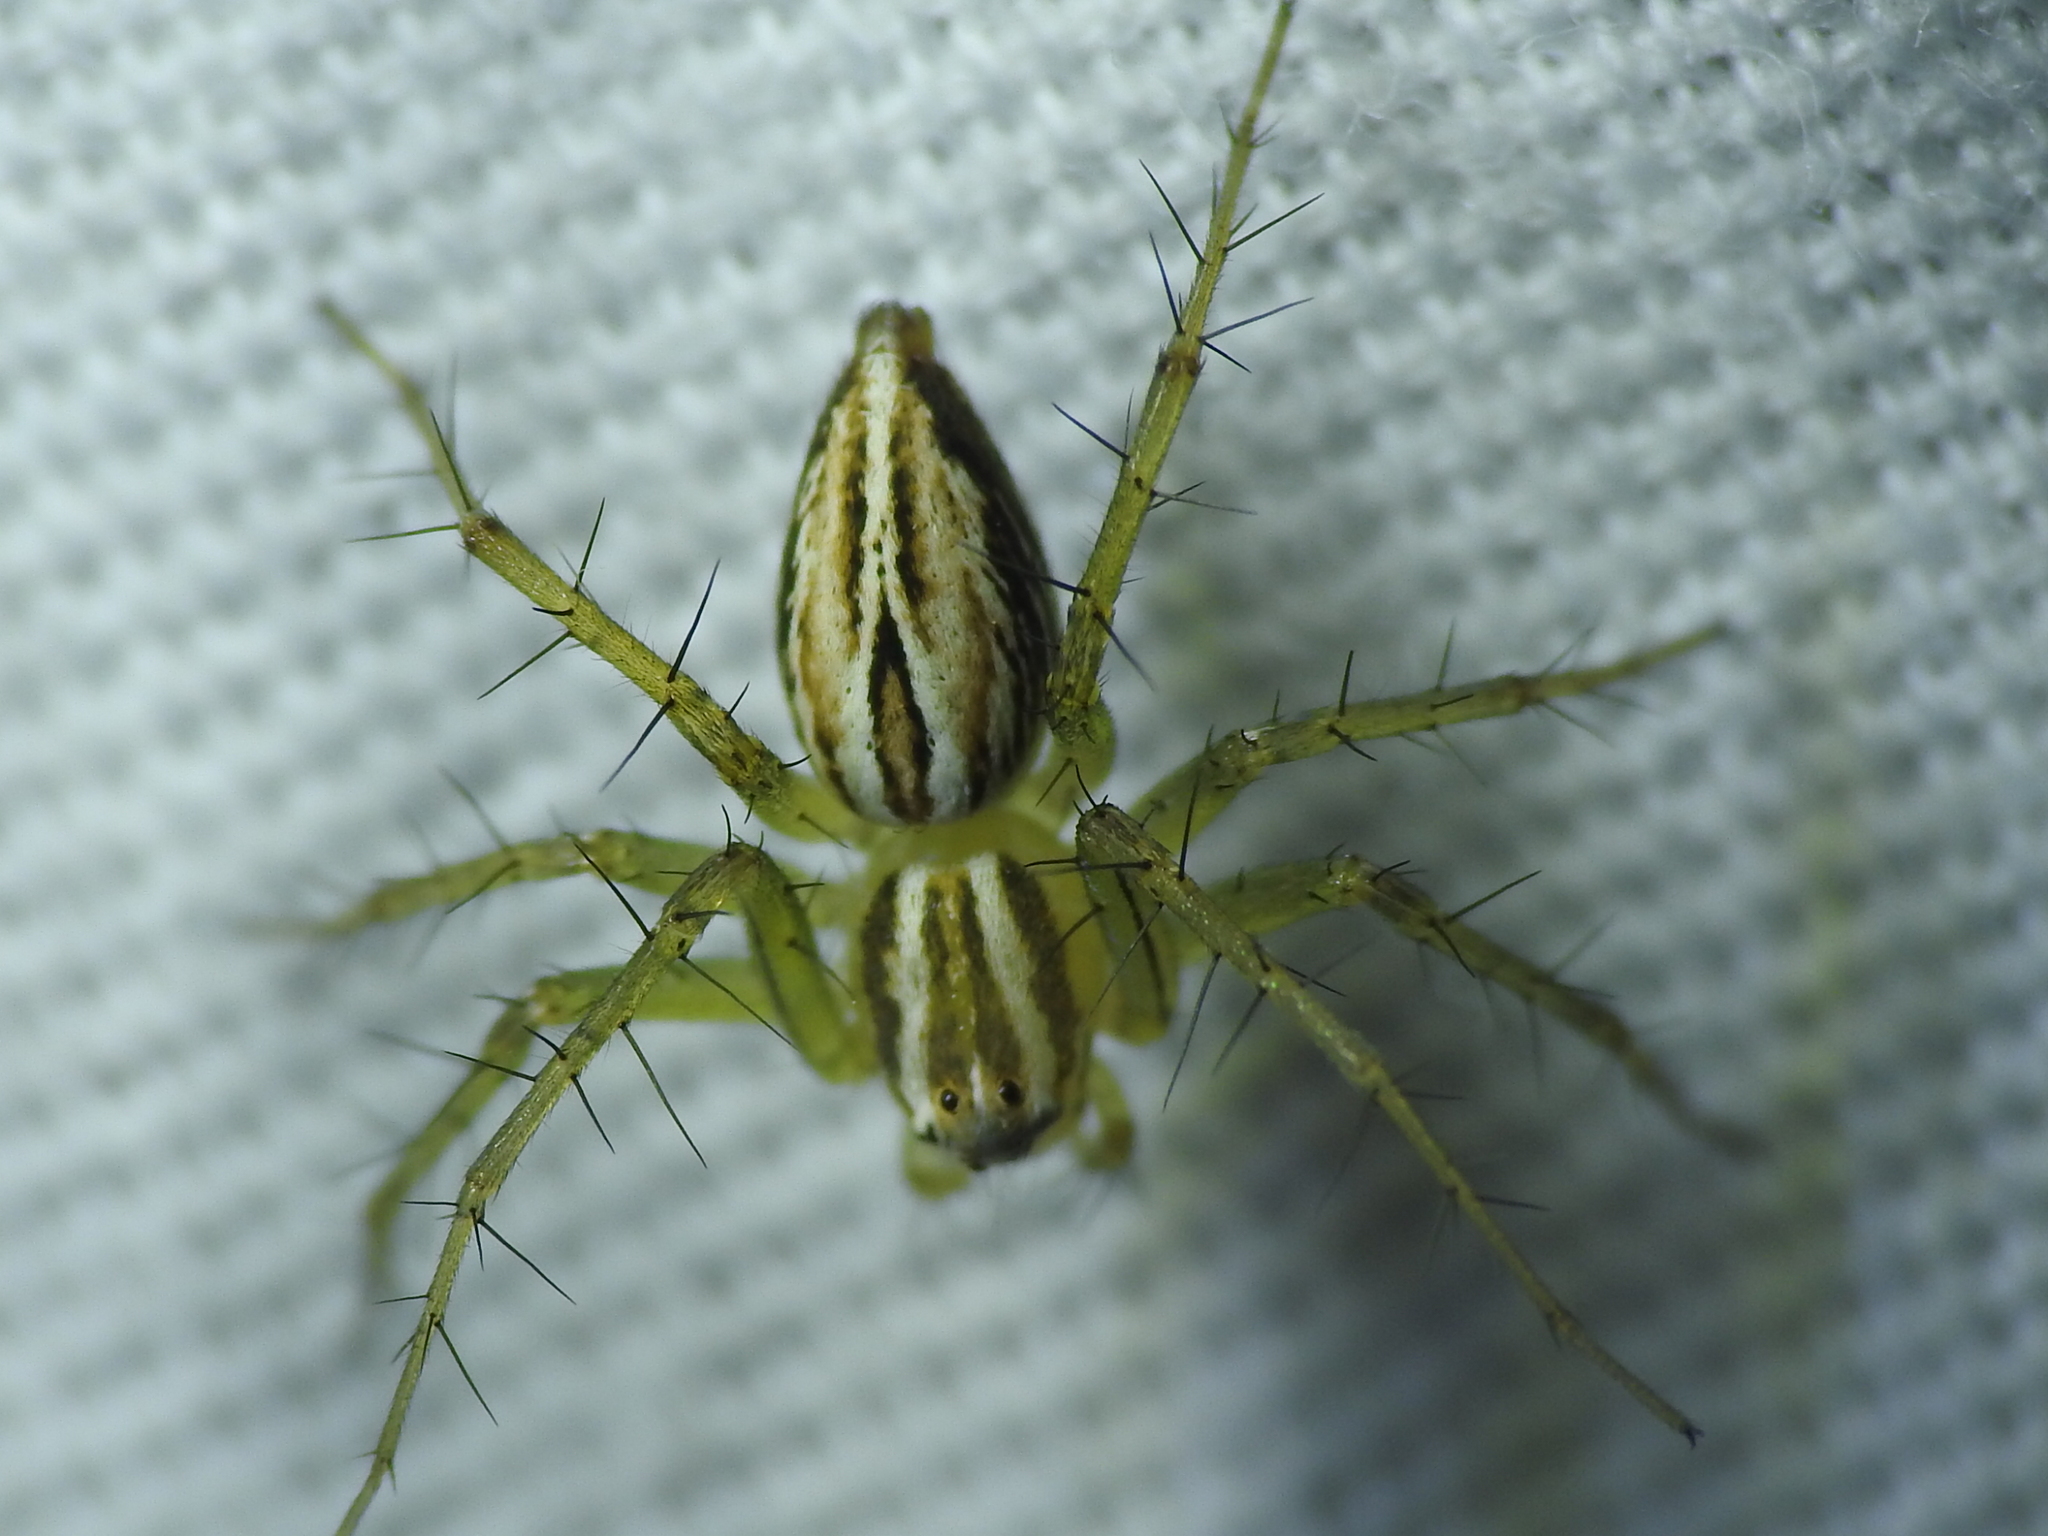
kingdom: Animalia
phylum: Arthropoda
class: Arachnida
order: Araneae
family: Oxyopidae
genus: Oxyopes
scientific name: Oxyopes salticus
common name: Lynx spiders
